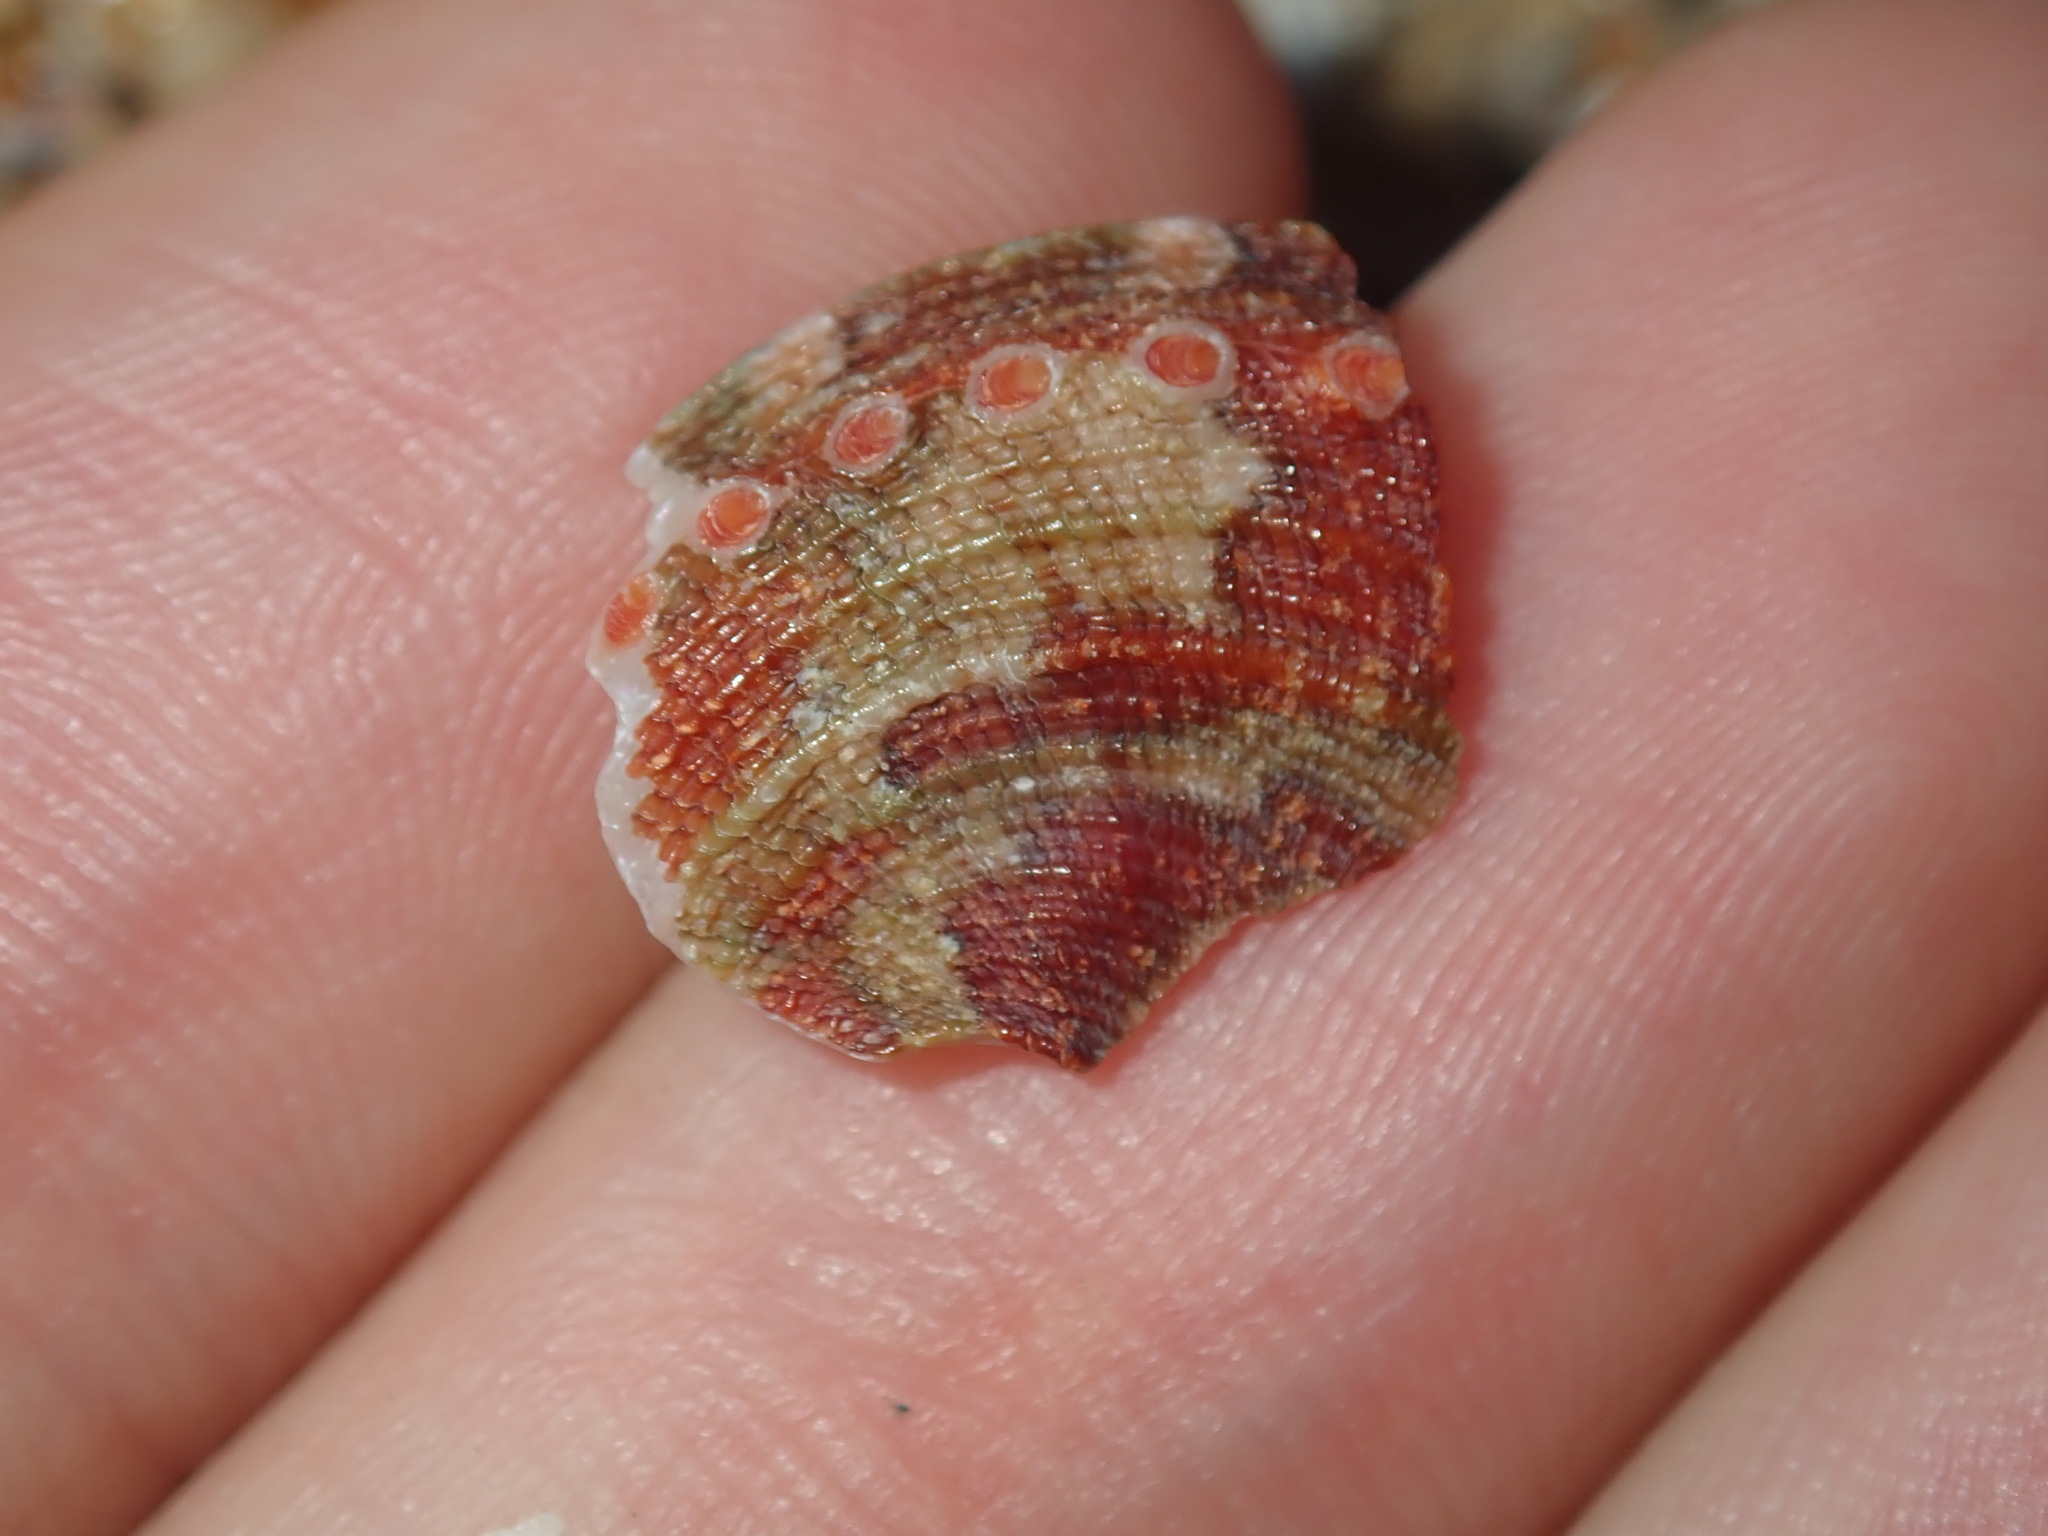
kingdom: Animalia
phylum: Mollusca
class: Gastropoda
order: Lepetellida
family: Haliotidae
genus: Haliotis
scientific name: Haliotis coccoradiata
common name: Reddish-rayed abalone
